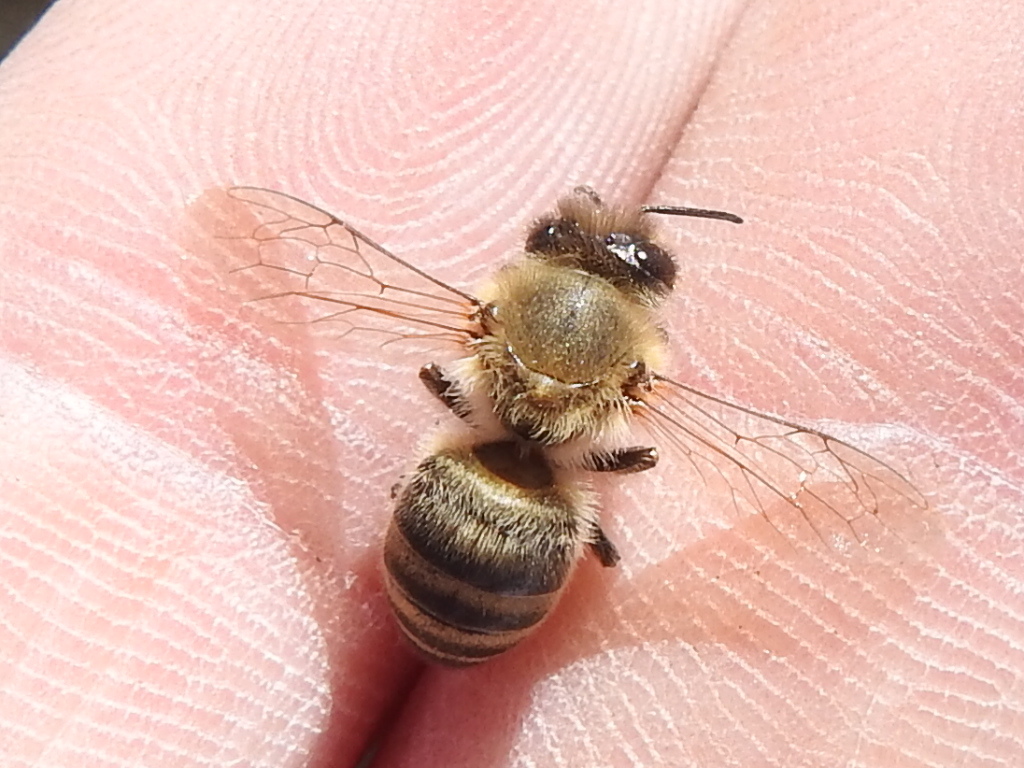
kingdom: Animalia
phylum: Arthropoda
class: Insecta
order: Hymenoptera
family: Apidae
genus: Apis
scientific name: Apis mellifera
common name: Honey bee
